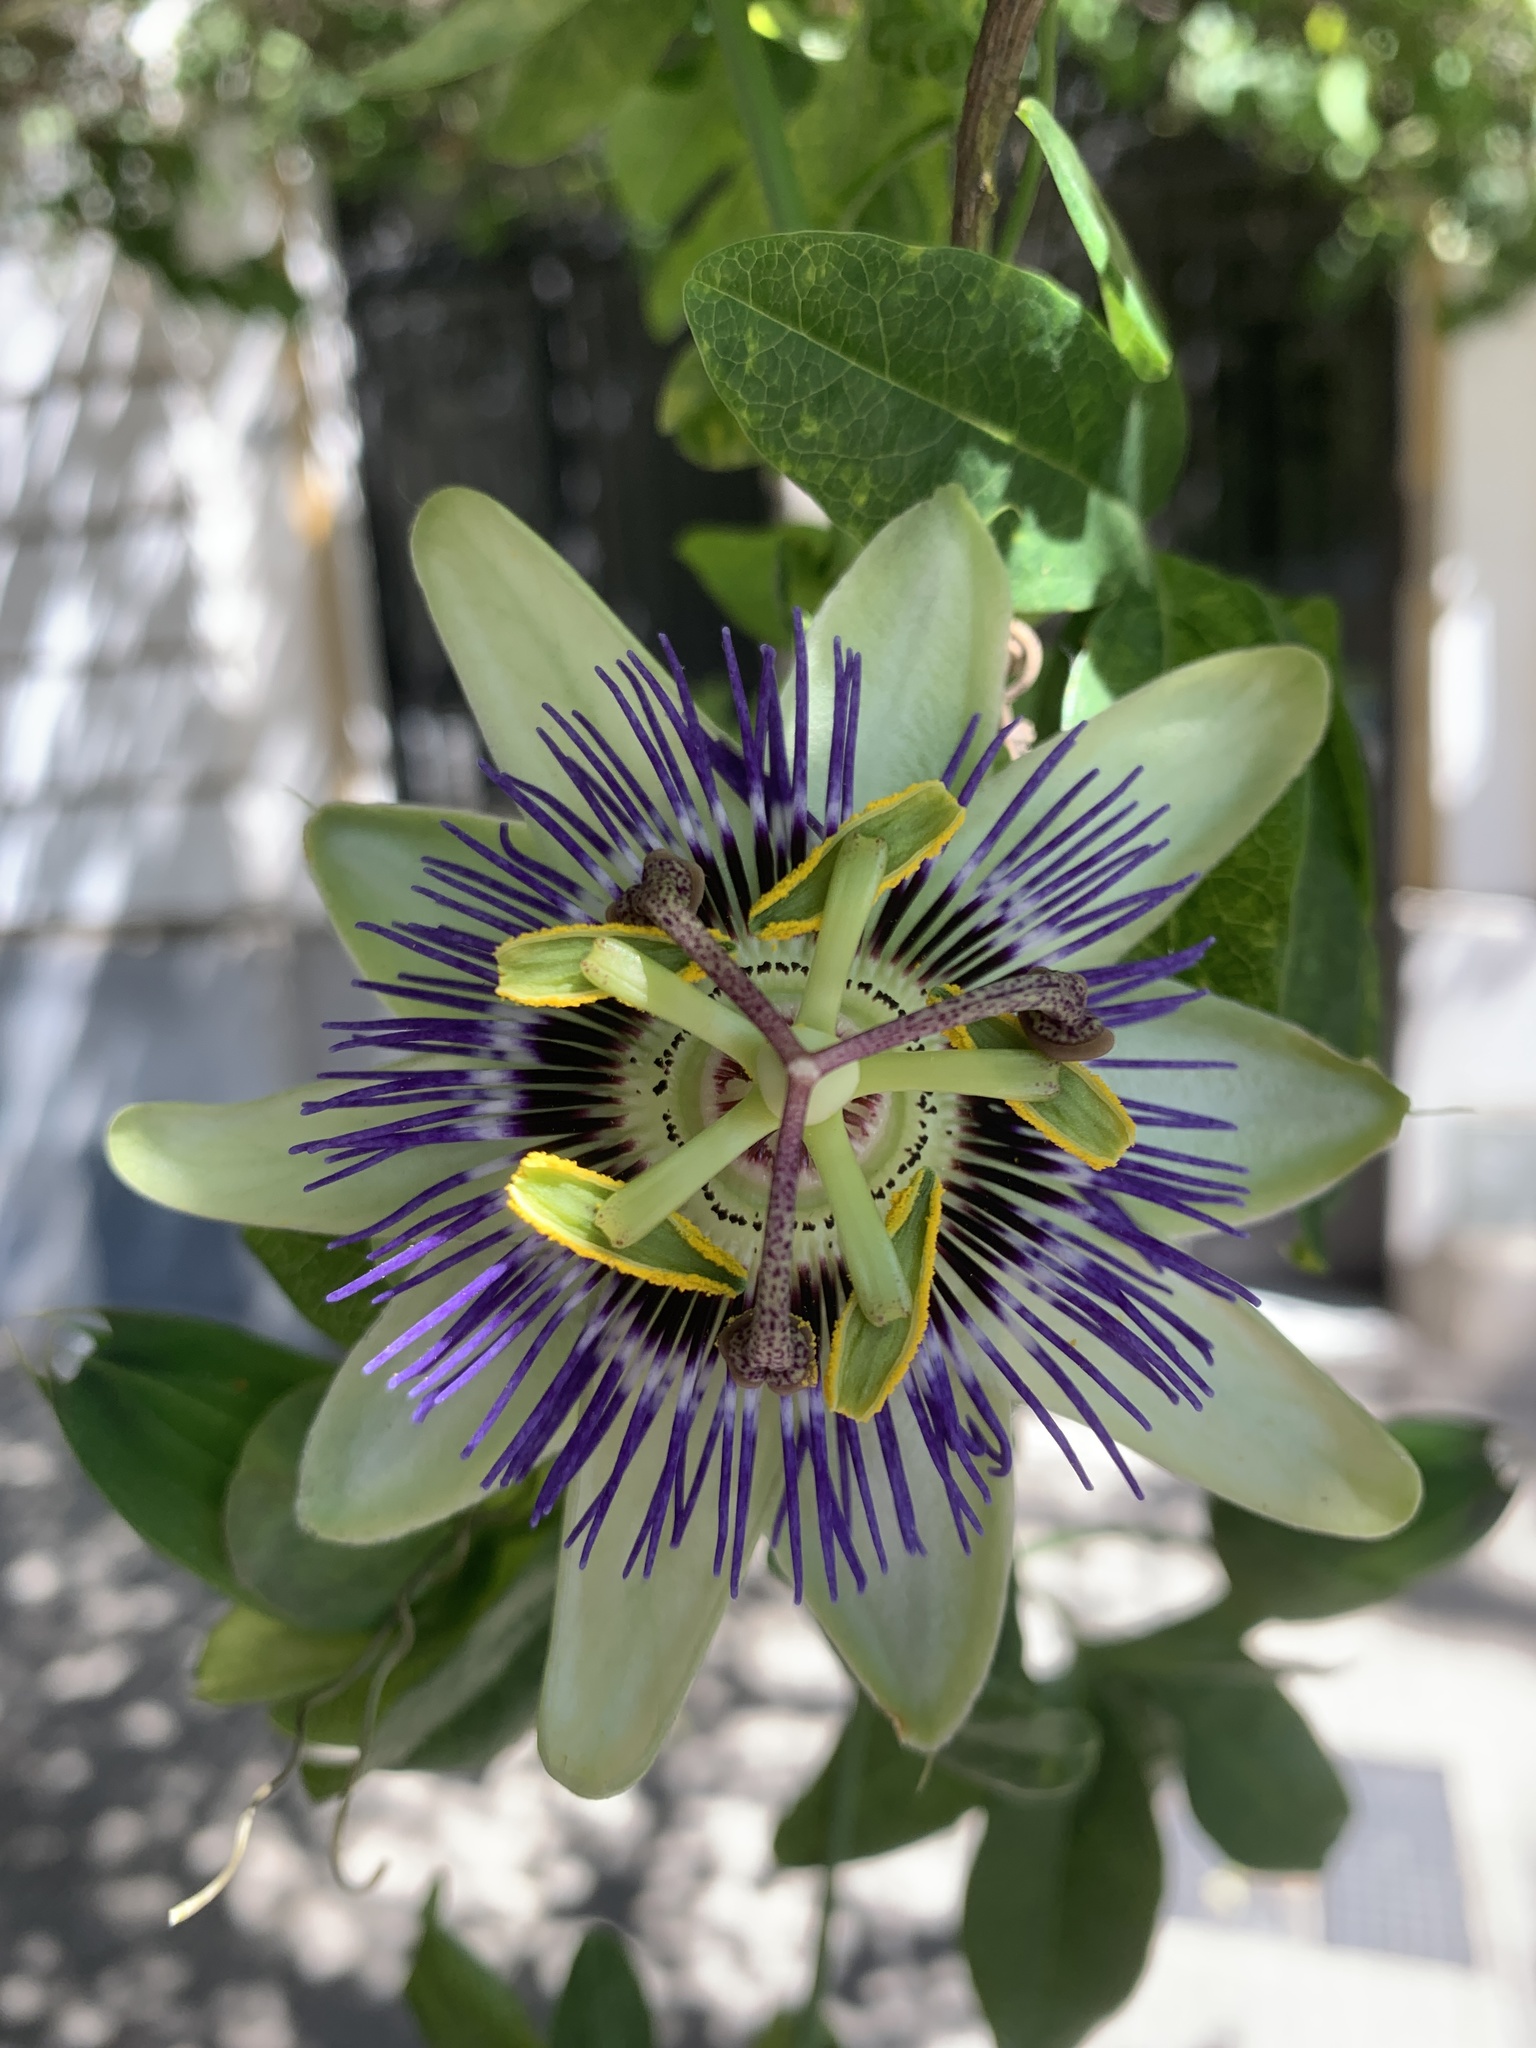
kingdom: Plantae
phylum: Tracheophyta
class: Magnoliopsida
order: Malpighiales
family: Passifloraceae
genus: Passiflora
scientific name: Passiflora caerulea
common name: Blue passionflower
